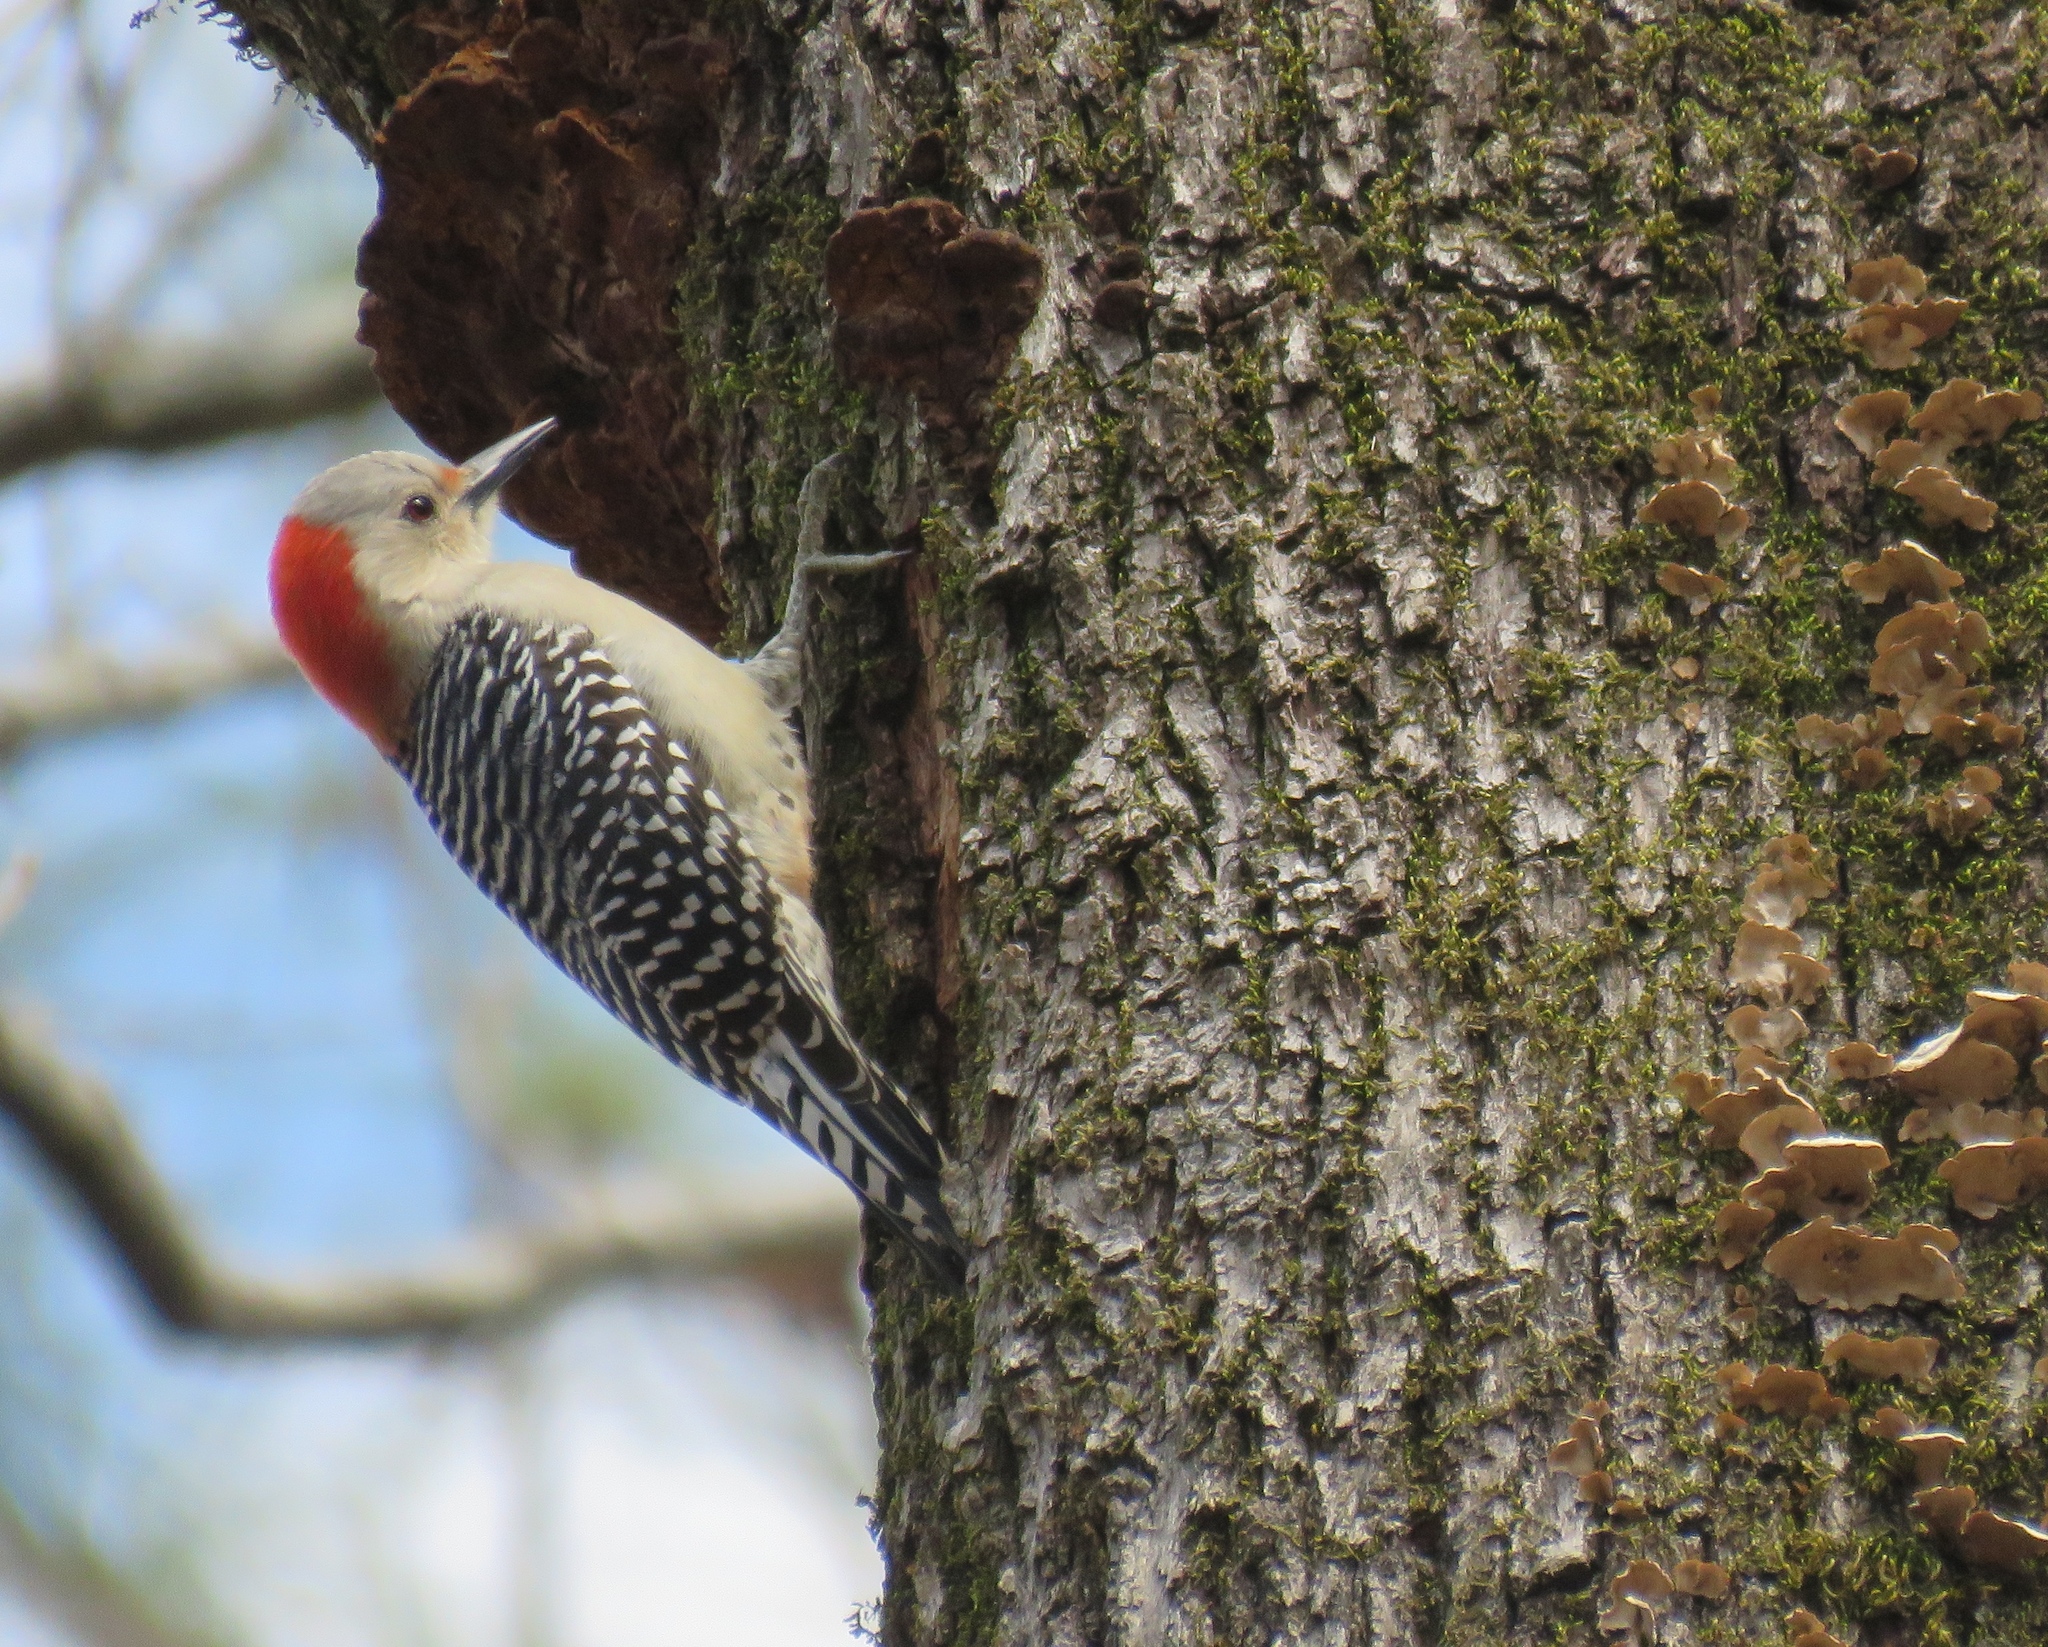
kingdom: Animalia
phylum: Chordata
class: Aves
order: Piciformes
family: Picidae
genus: Melanerpes
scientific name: Melanerpes carolinus
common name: Red-bellied woodpecker
